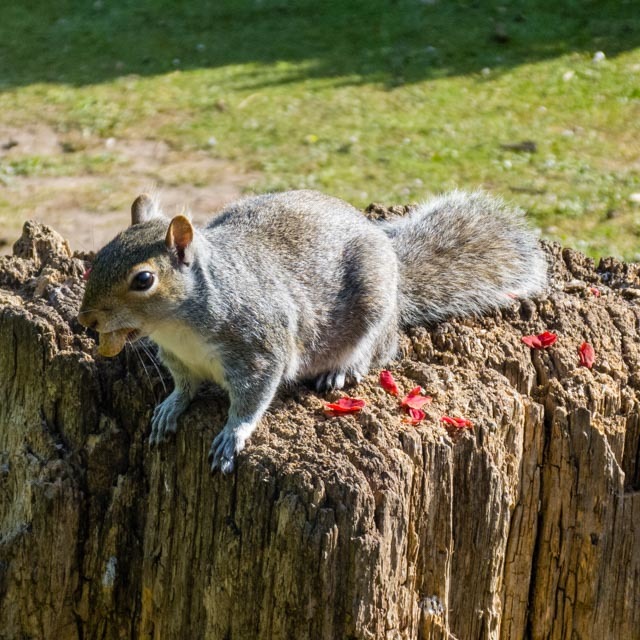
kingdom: Animalia
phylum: Chordata
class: Mammalia
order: Rodentia
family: Sciuridae
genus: Sciurus
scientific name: Sciurus carolinensis
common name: Eastern gray squirrel
